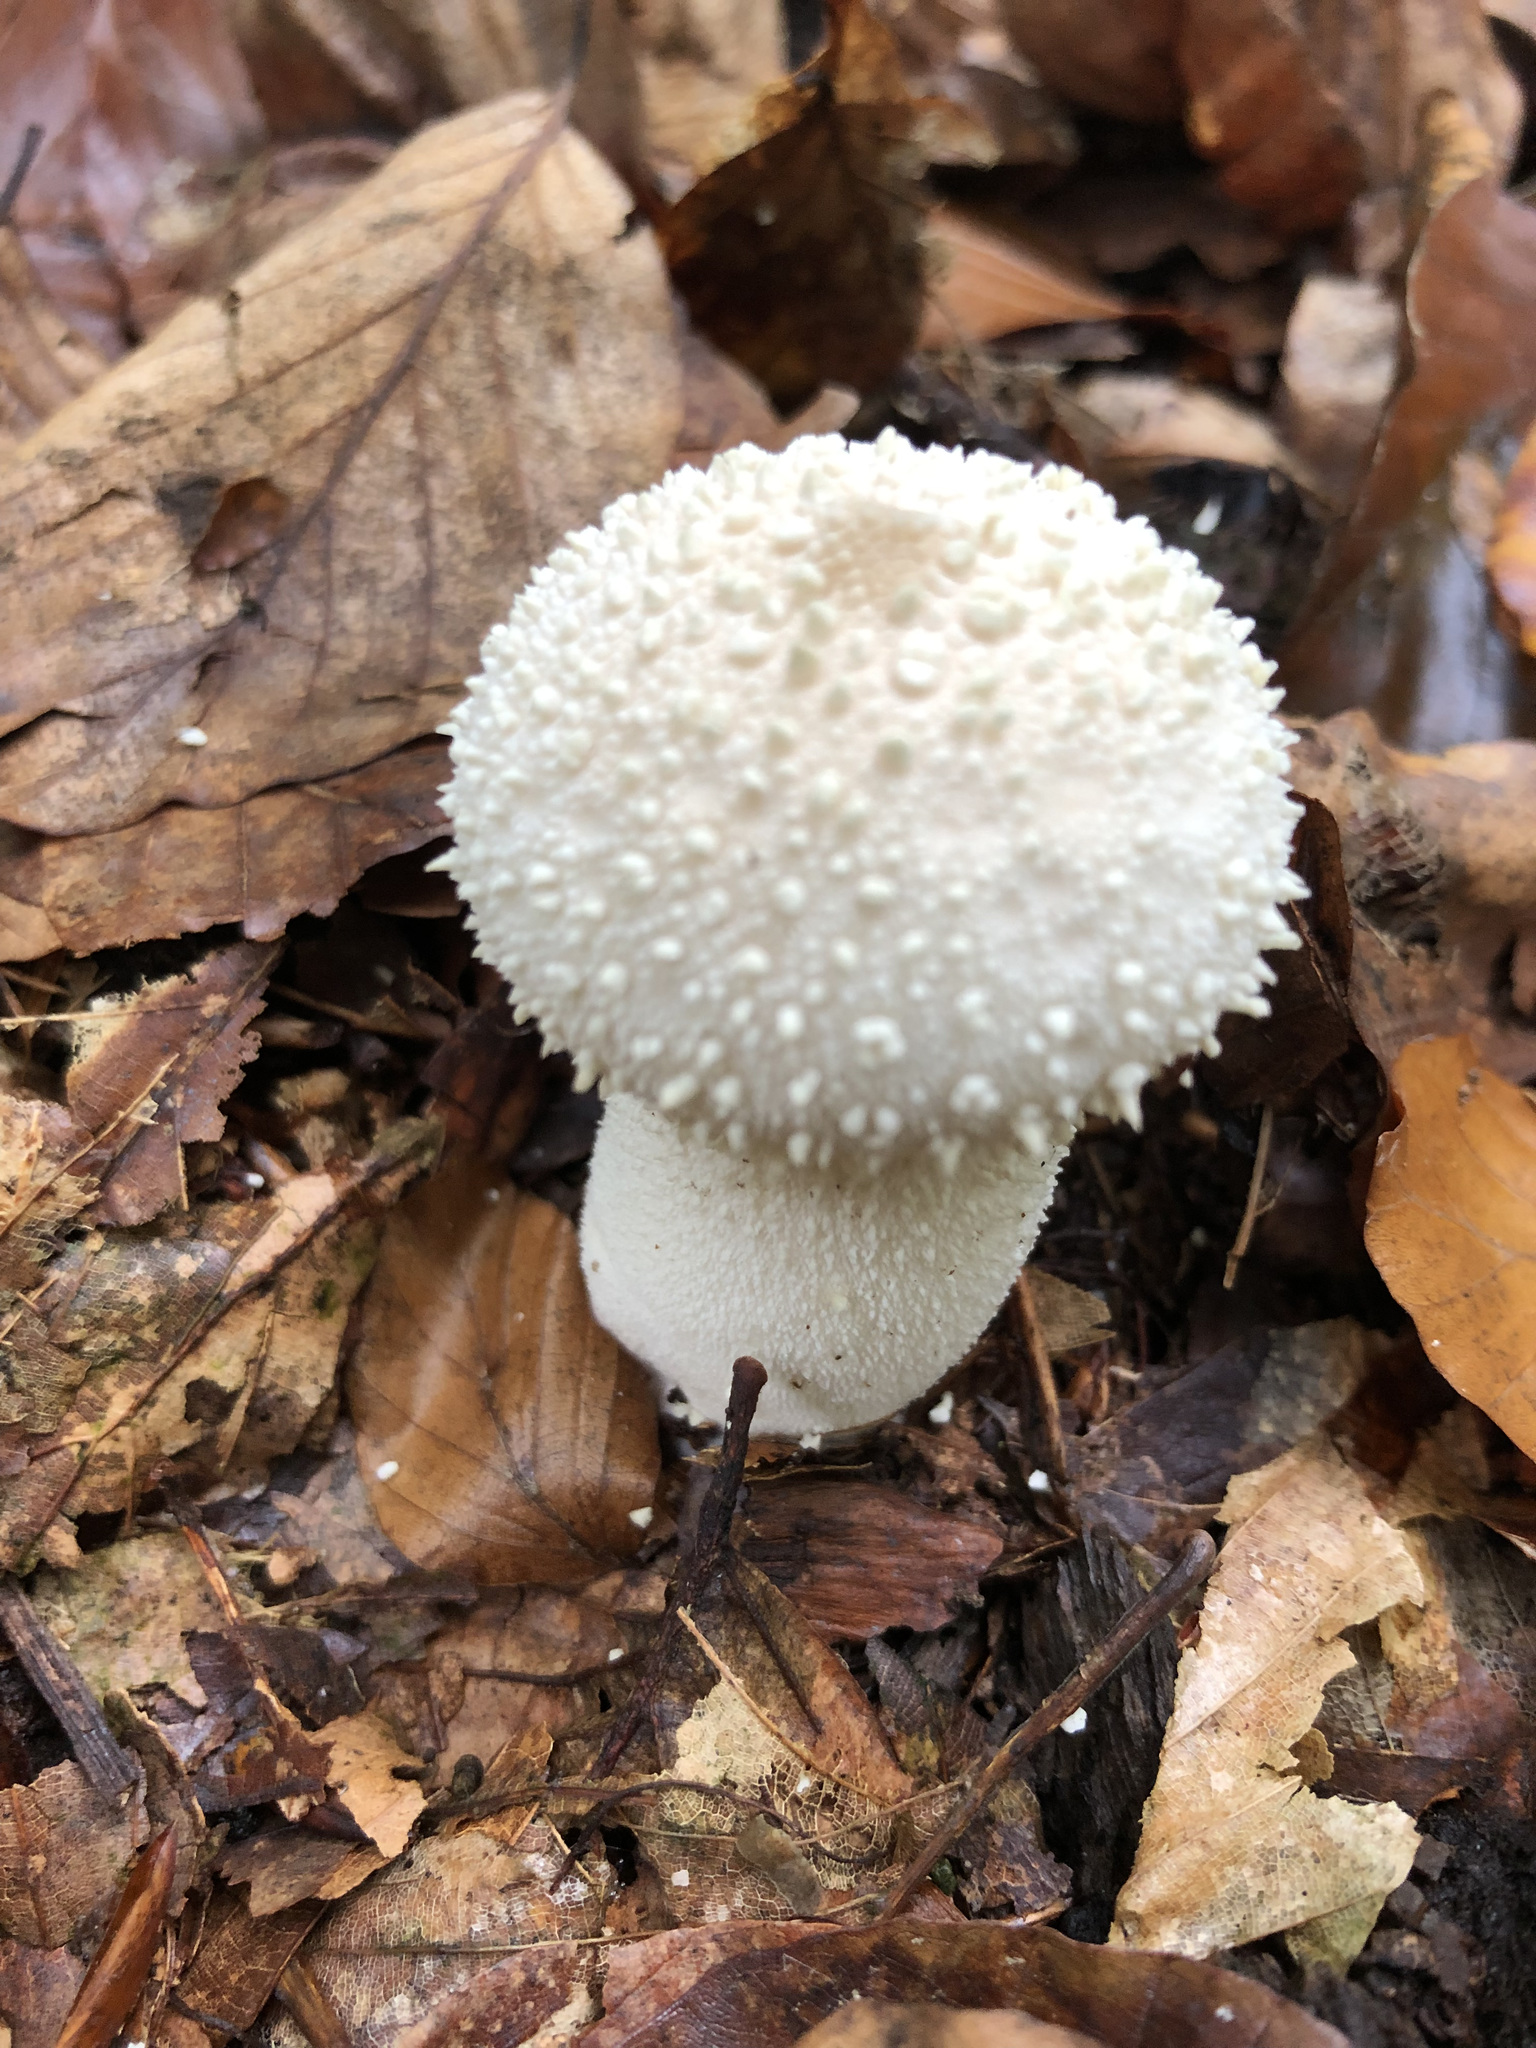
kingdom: Fungi
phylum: Basidiomycota
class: Agaricomycetes
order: Agaricales
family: Lycoperdaceae
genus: Lycoperdon
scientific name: Lycoperdon perlatum
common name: Common puffball
